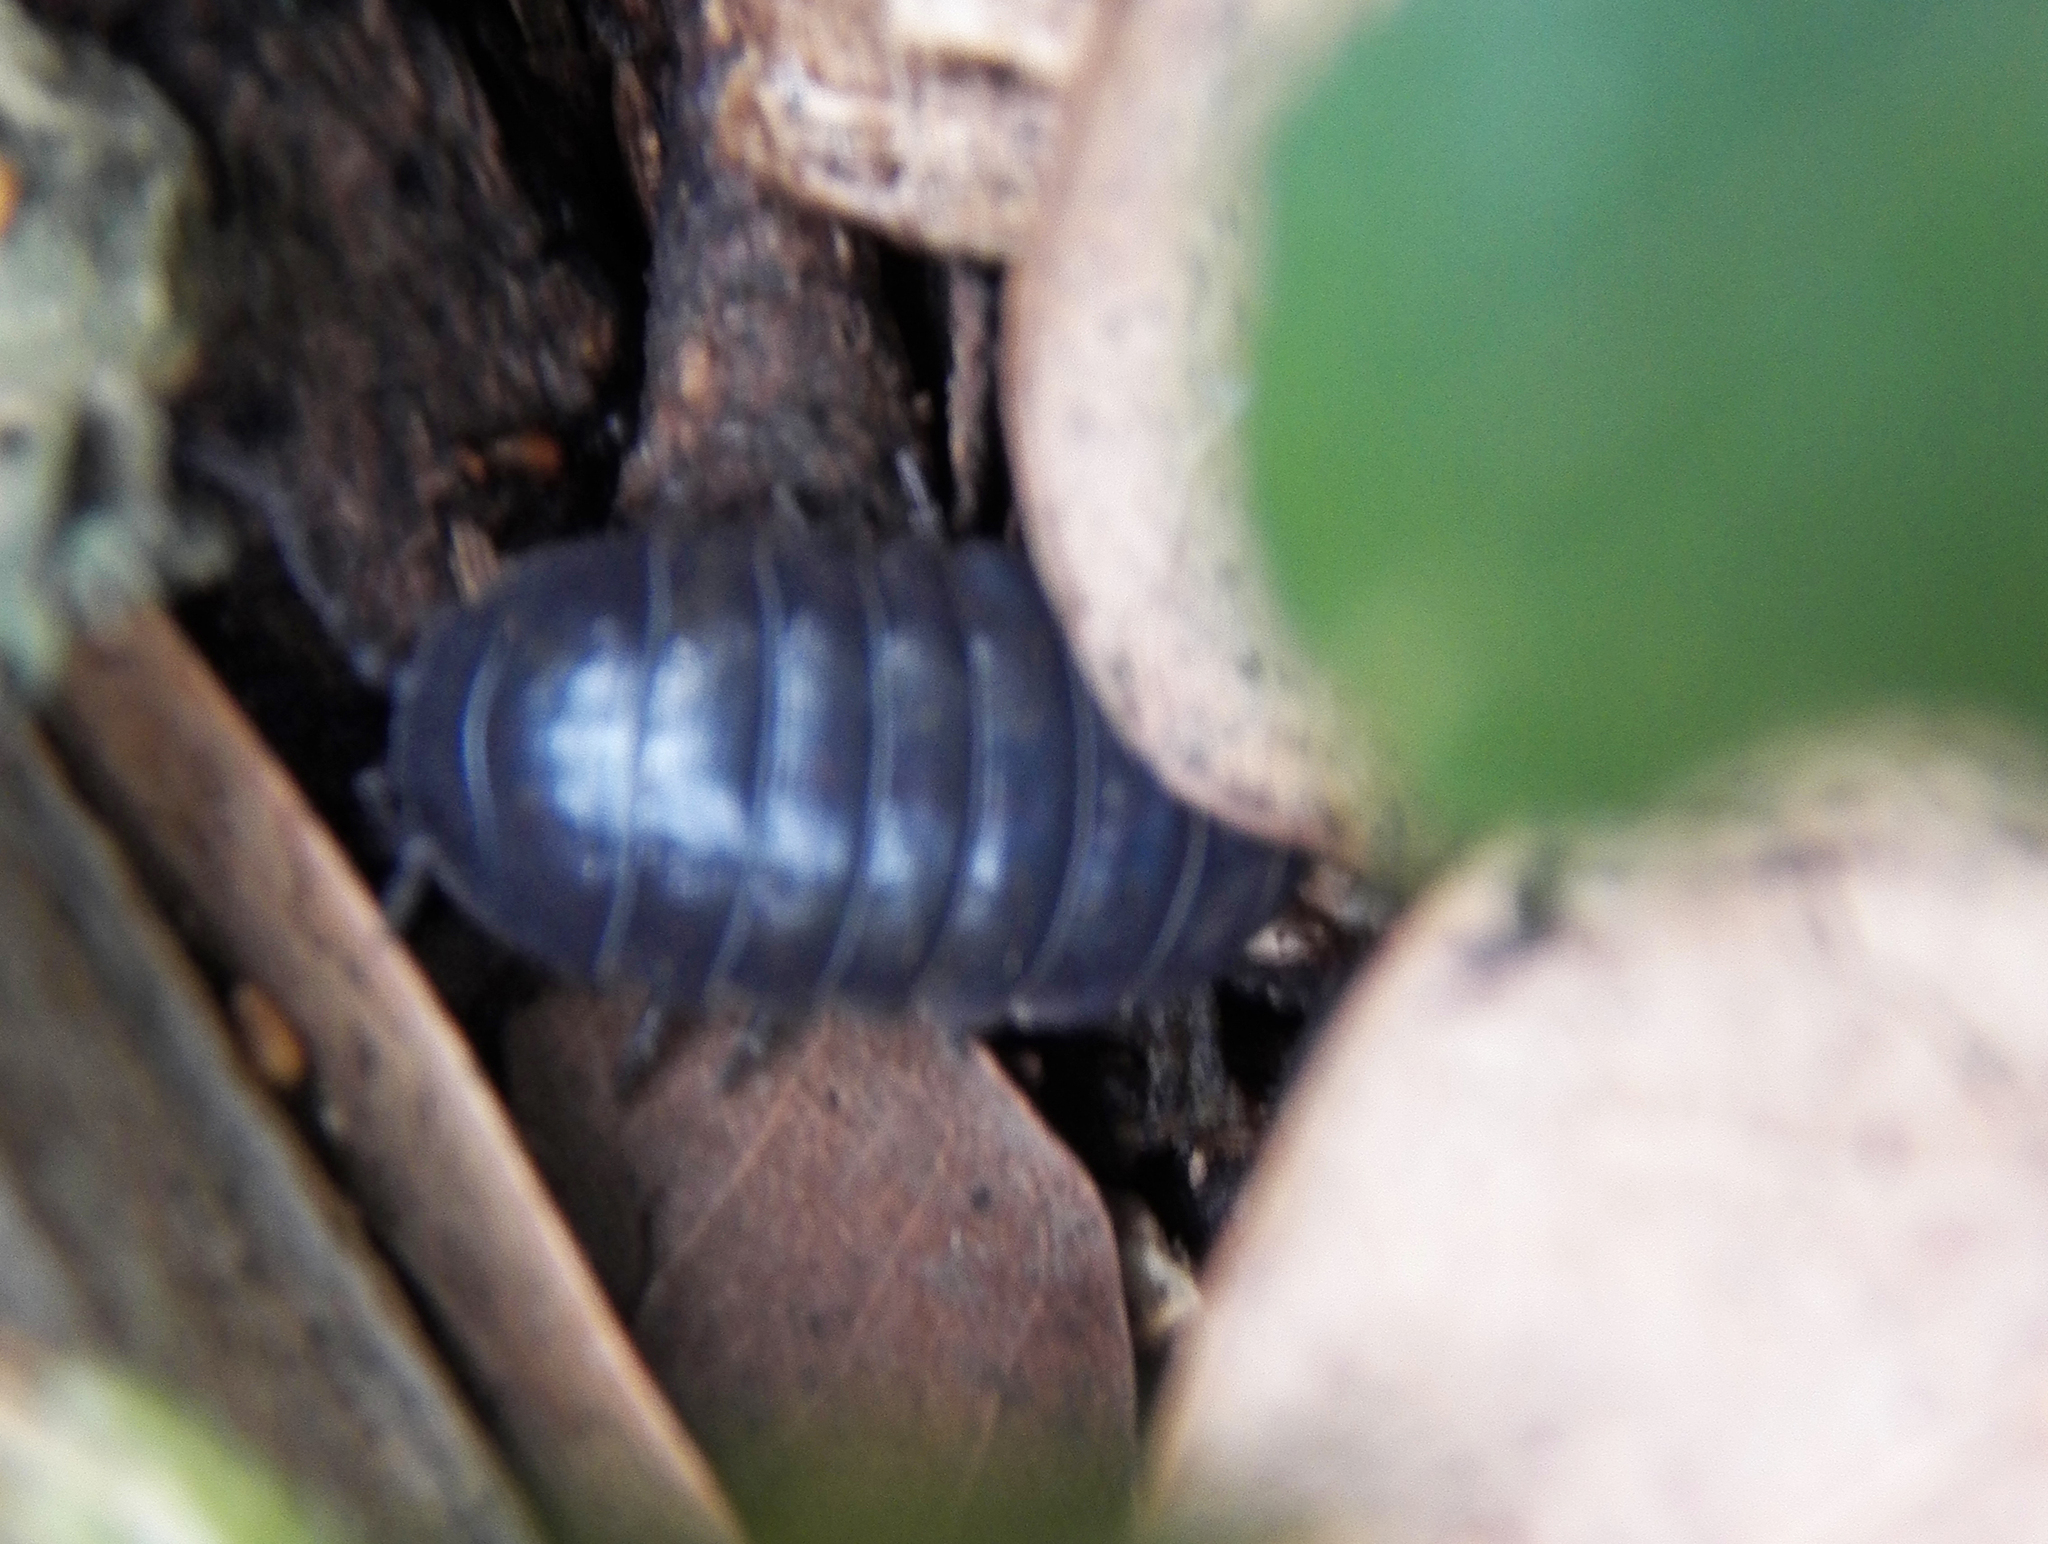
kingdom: Animalia
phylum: Arthropoda
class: Malacostraca
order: Isopoda
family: Armadillidiidae
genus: Armadillidium
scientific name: Armadillidium vulgare
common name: Common pill woodlouse
